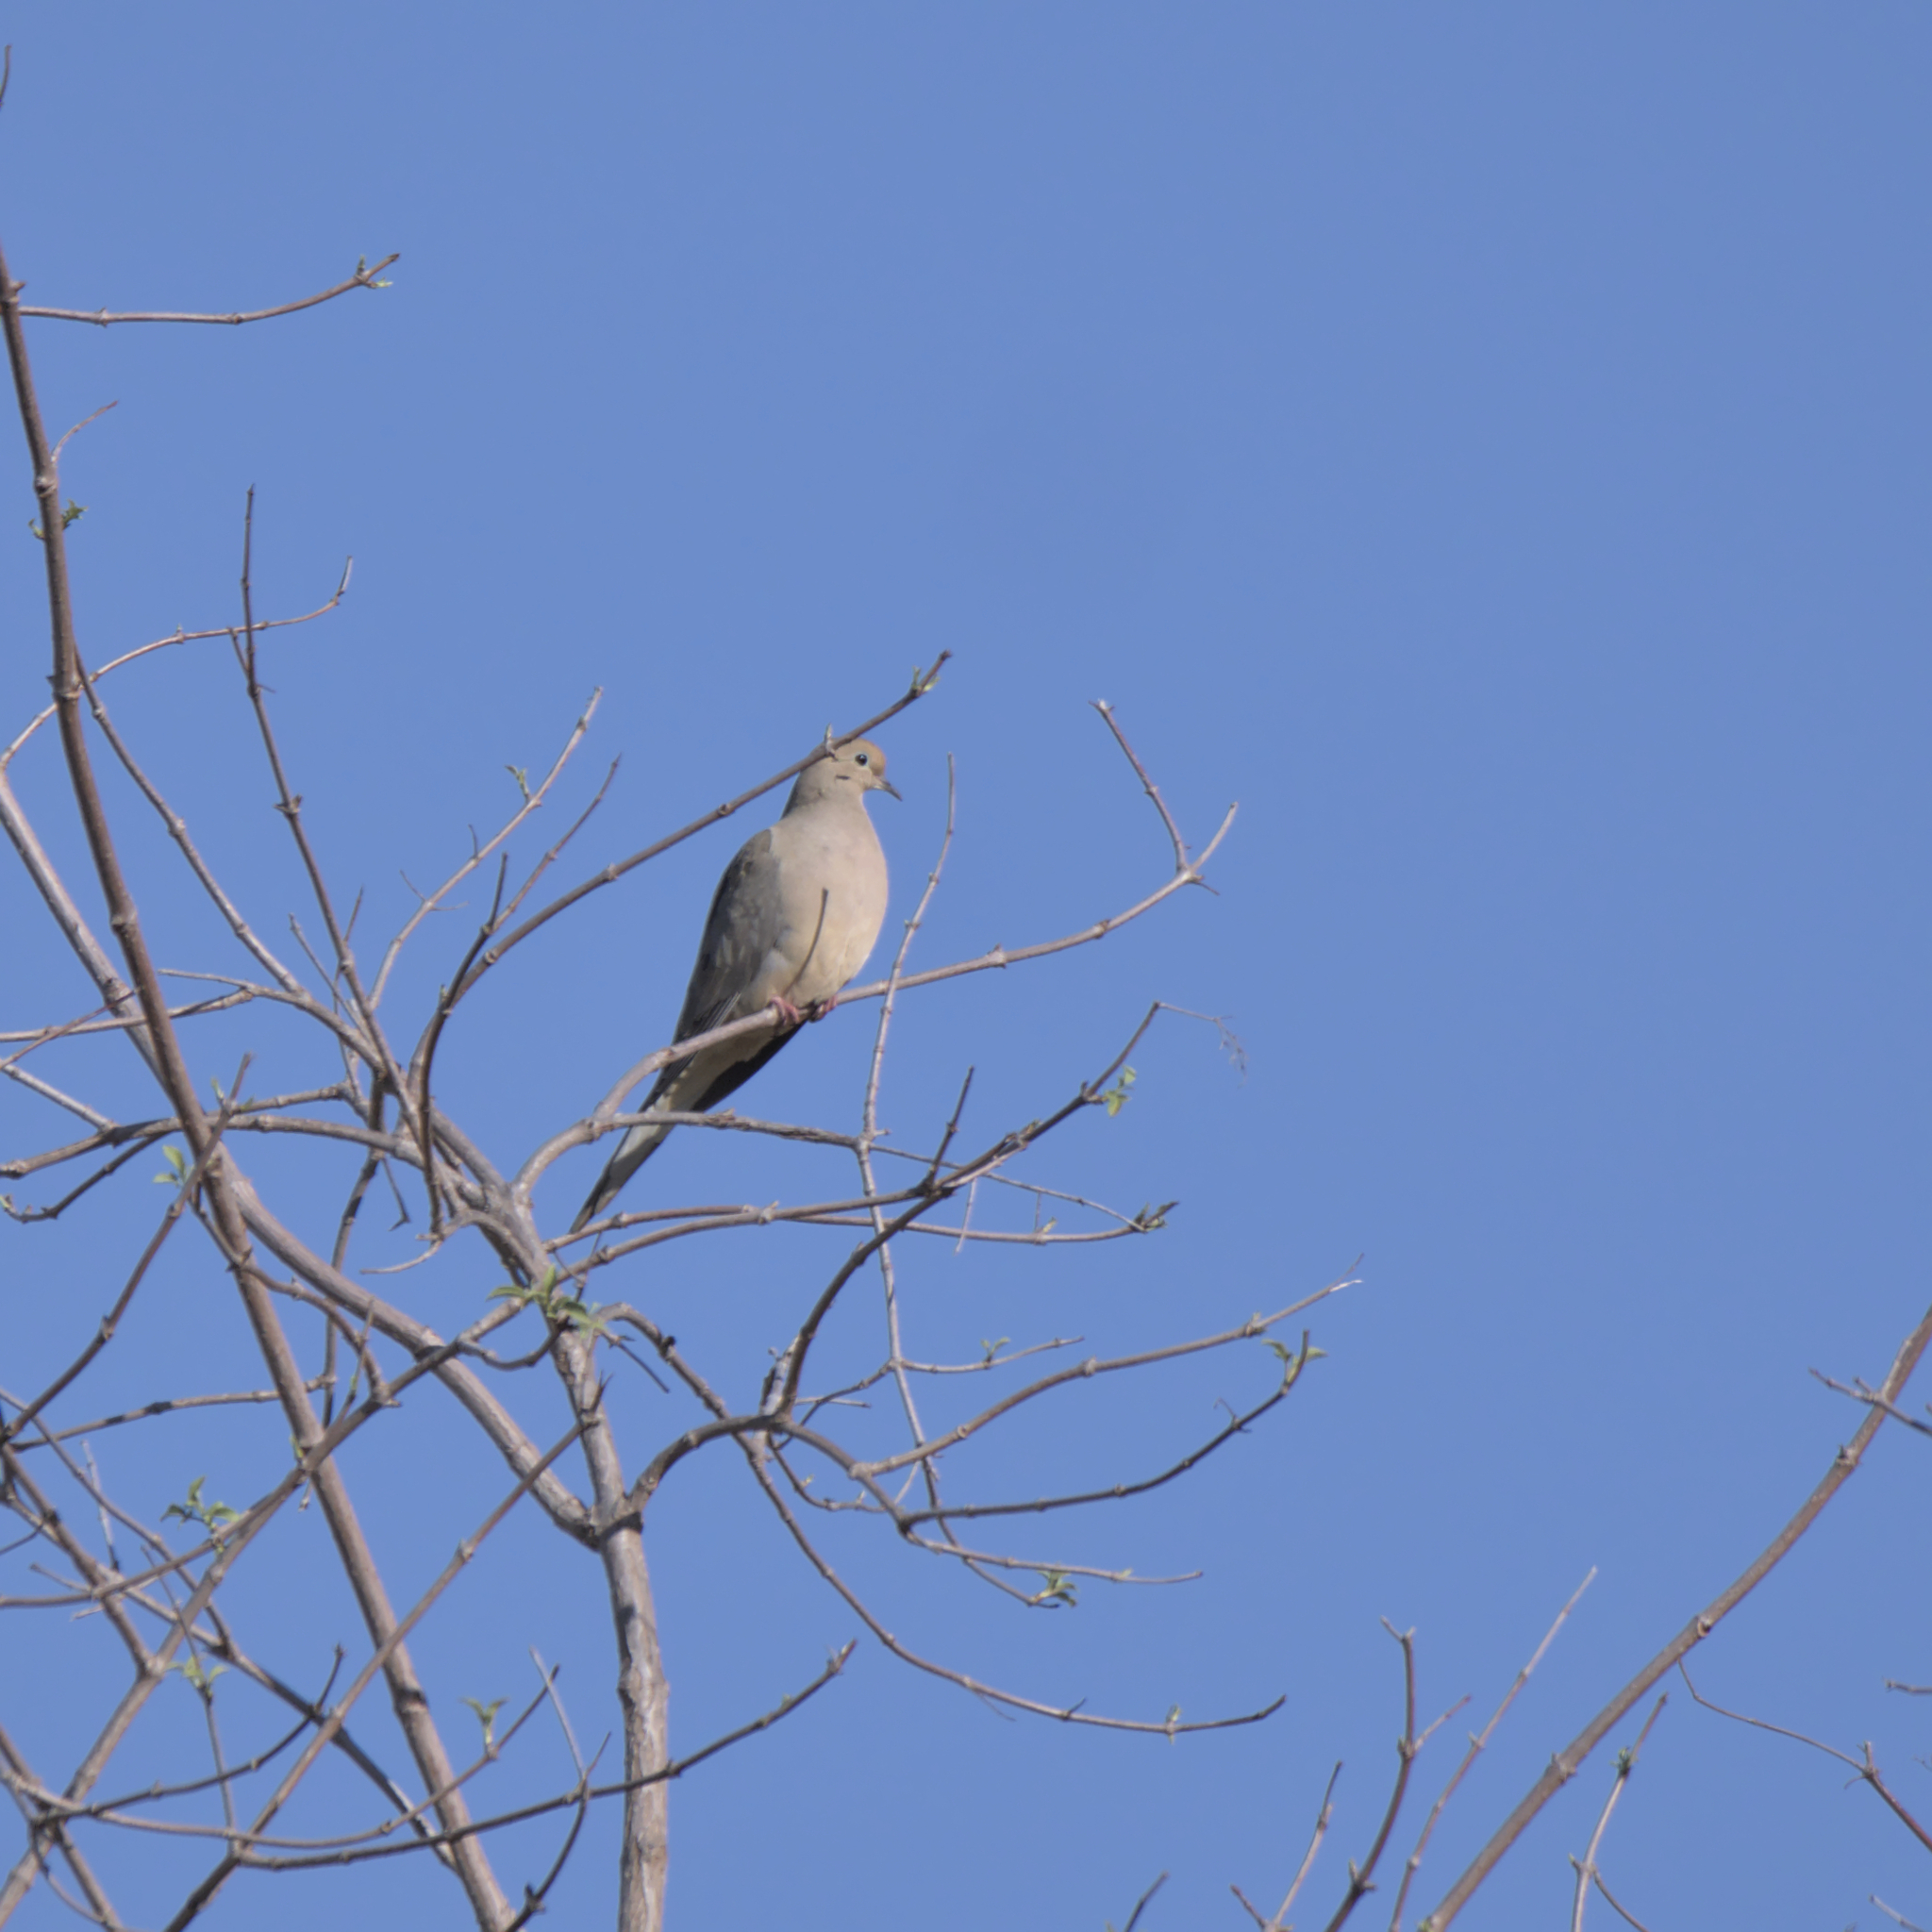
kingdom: Animalia
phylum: Chordata
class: Aves
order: Columbiformes
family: Columbidae
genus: Zenaida
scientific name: Zenaida macroura
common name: Mourning dove
